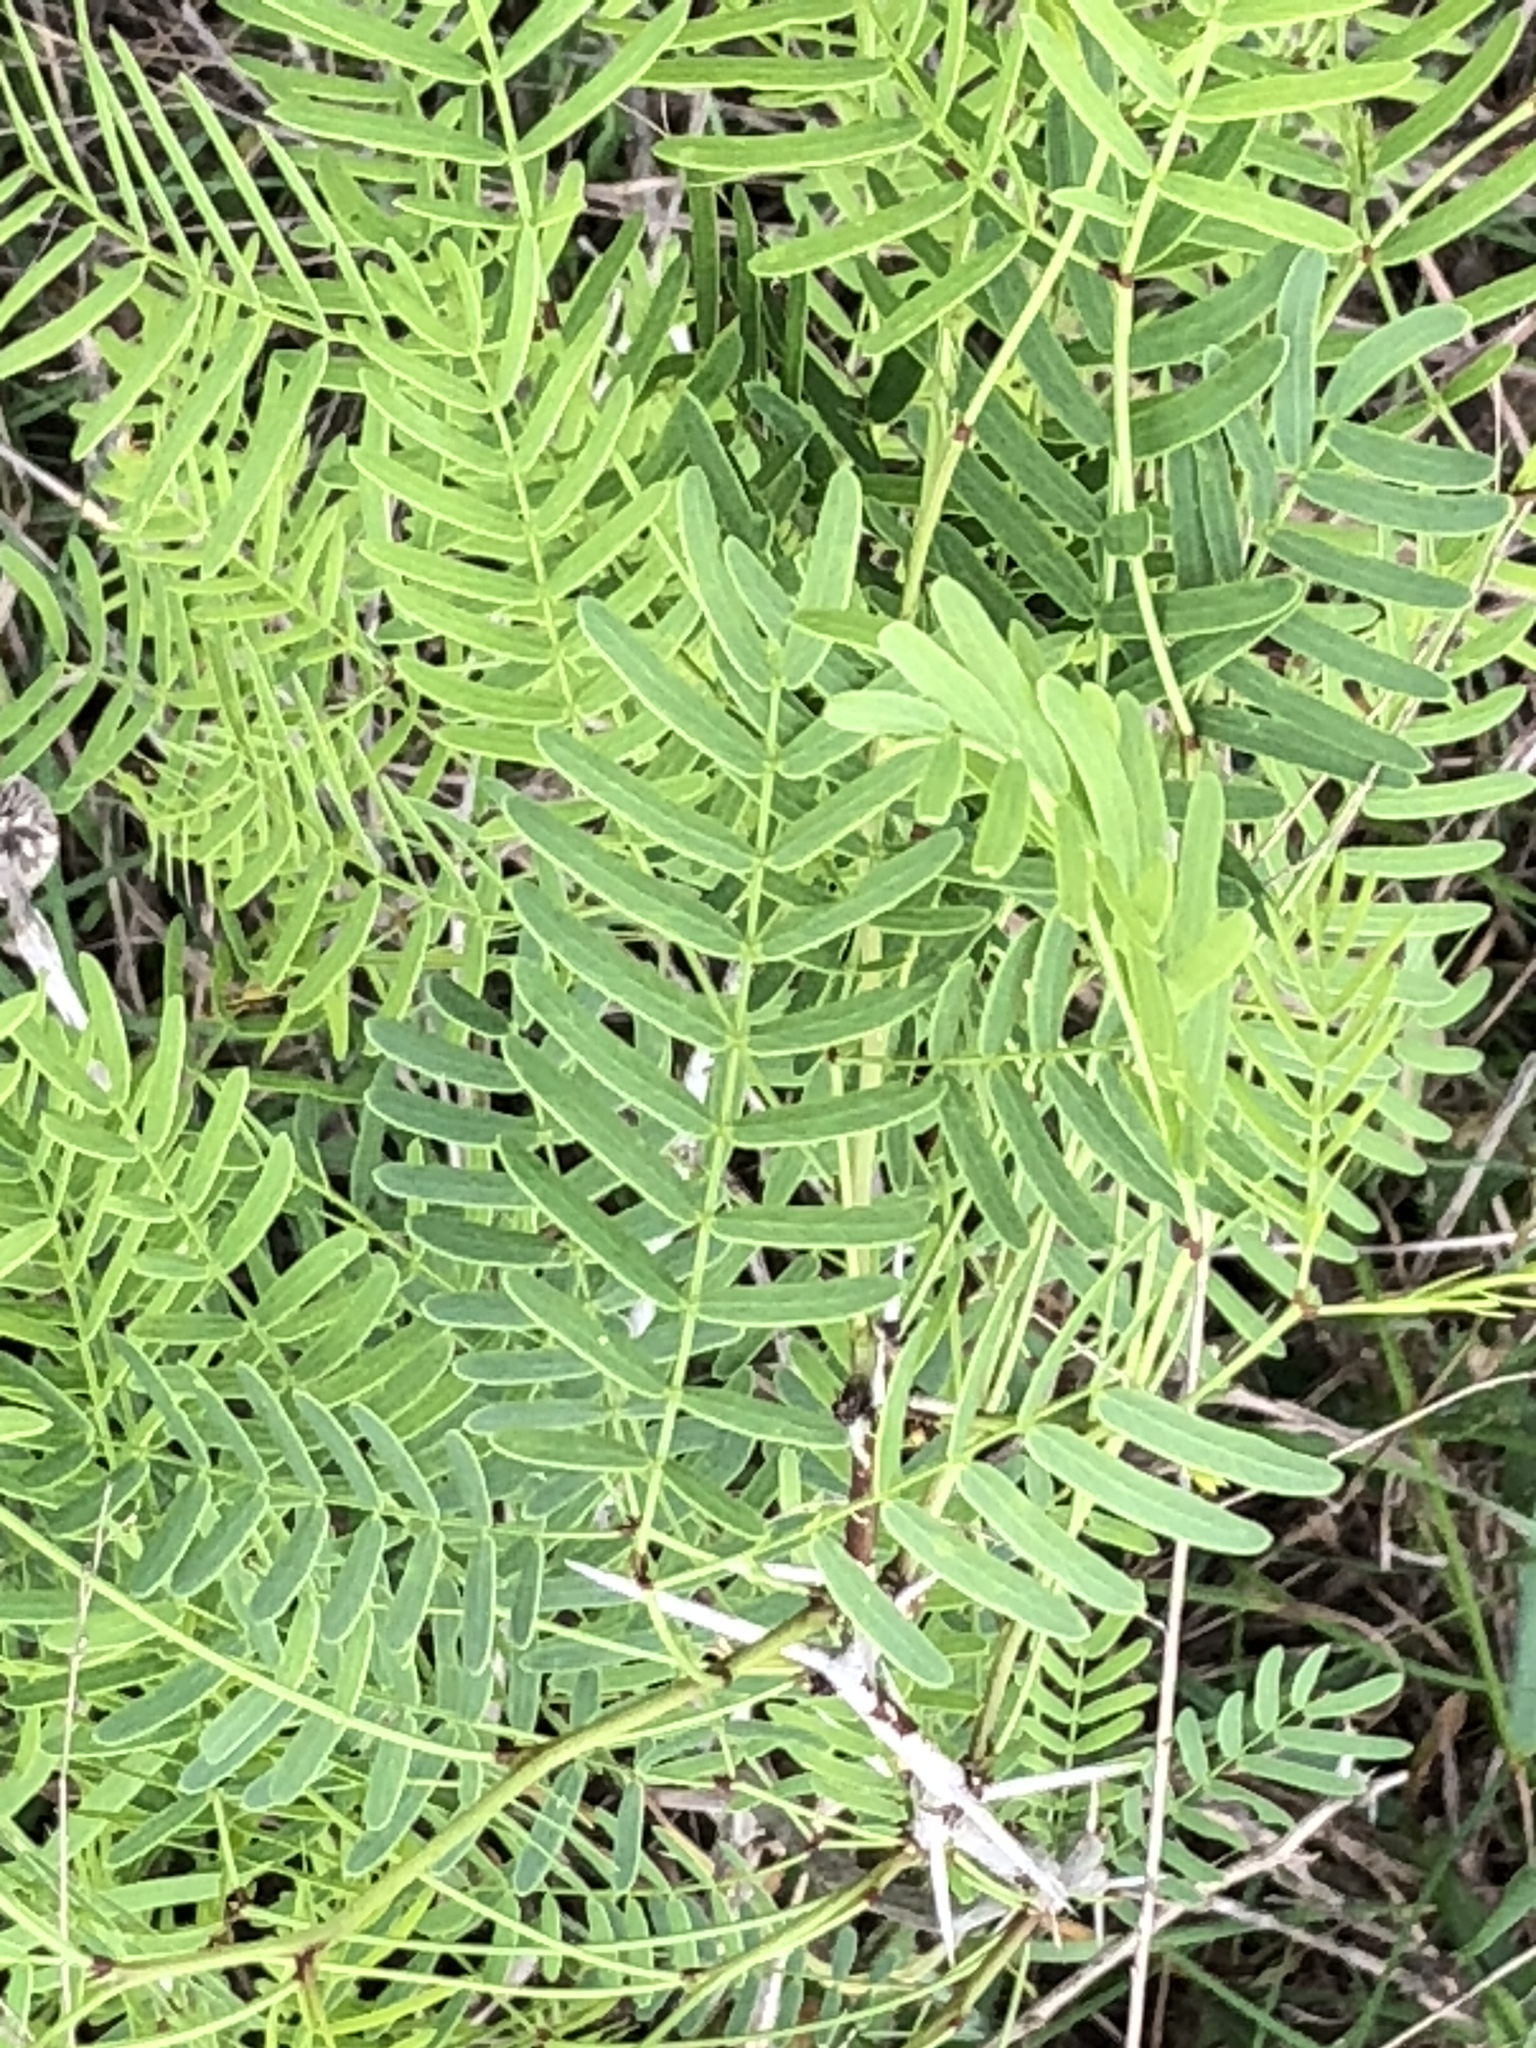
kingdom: Plantae
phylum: Tracheophyta
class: Magnoliopsida
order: Fabales
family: Fabaceae
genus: Prosopis
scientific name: Prosopis glandulosa
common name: Honey mesquite
